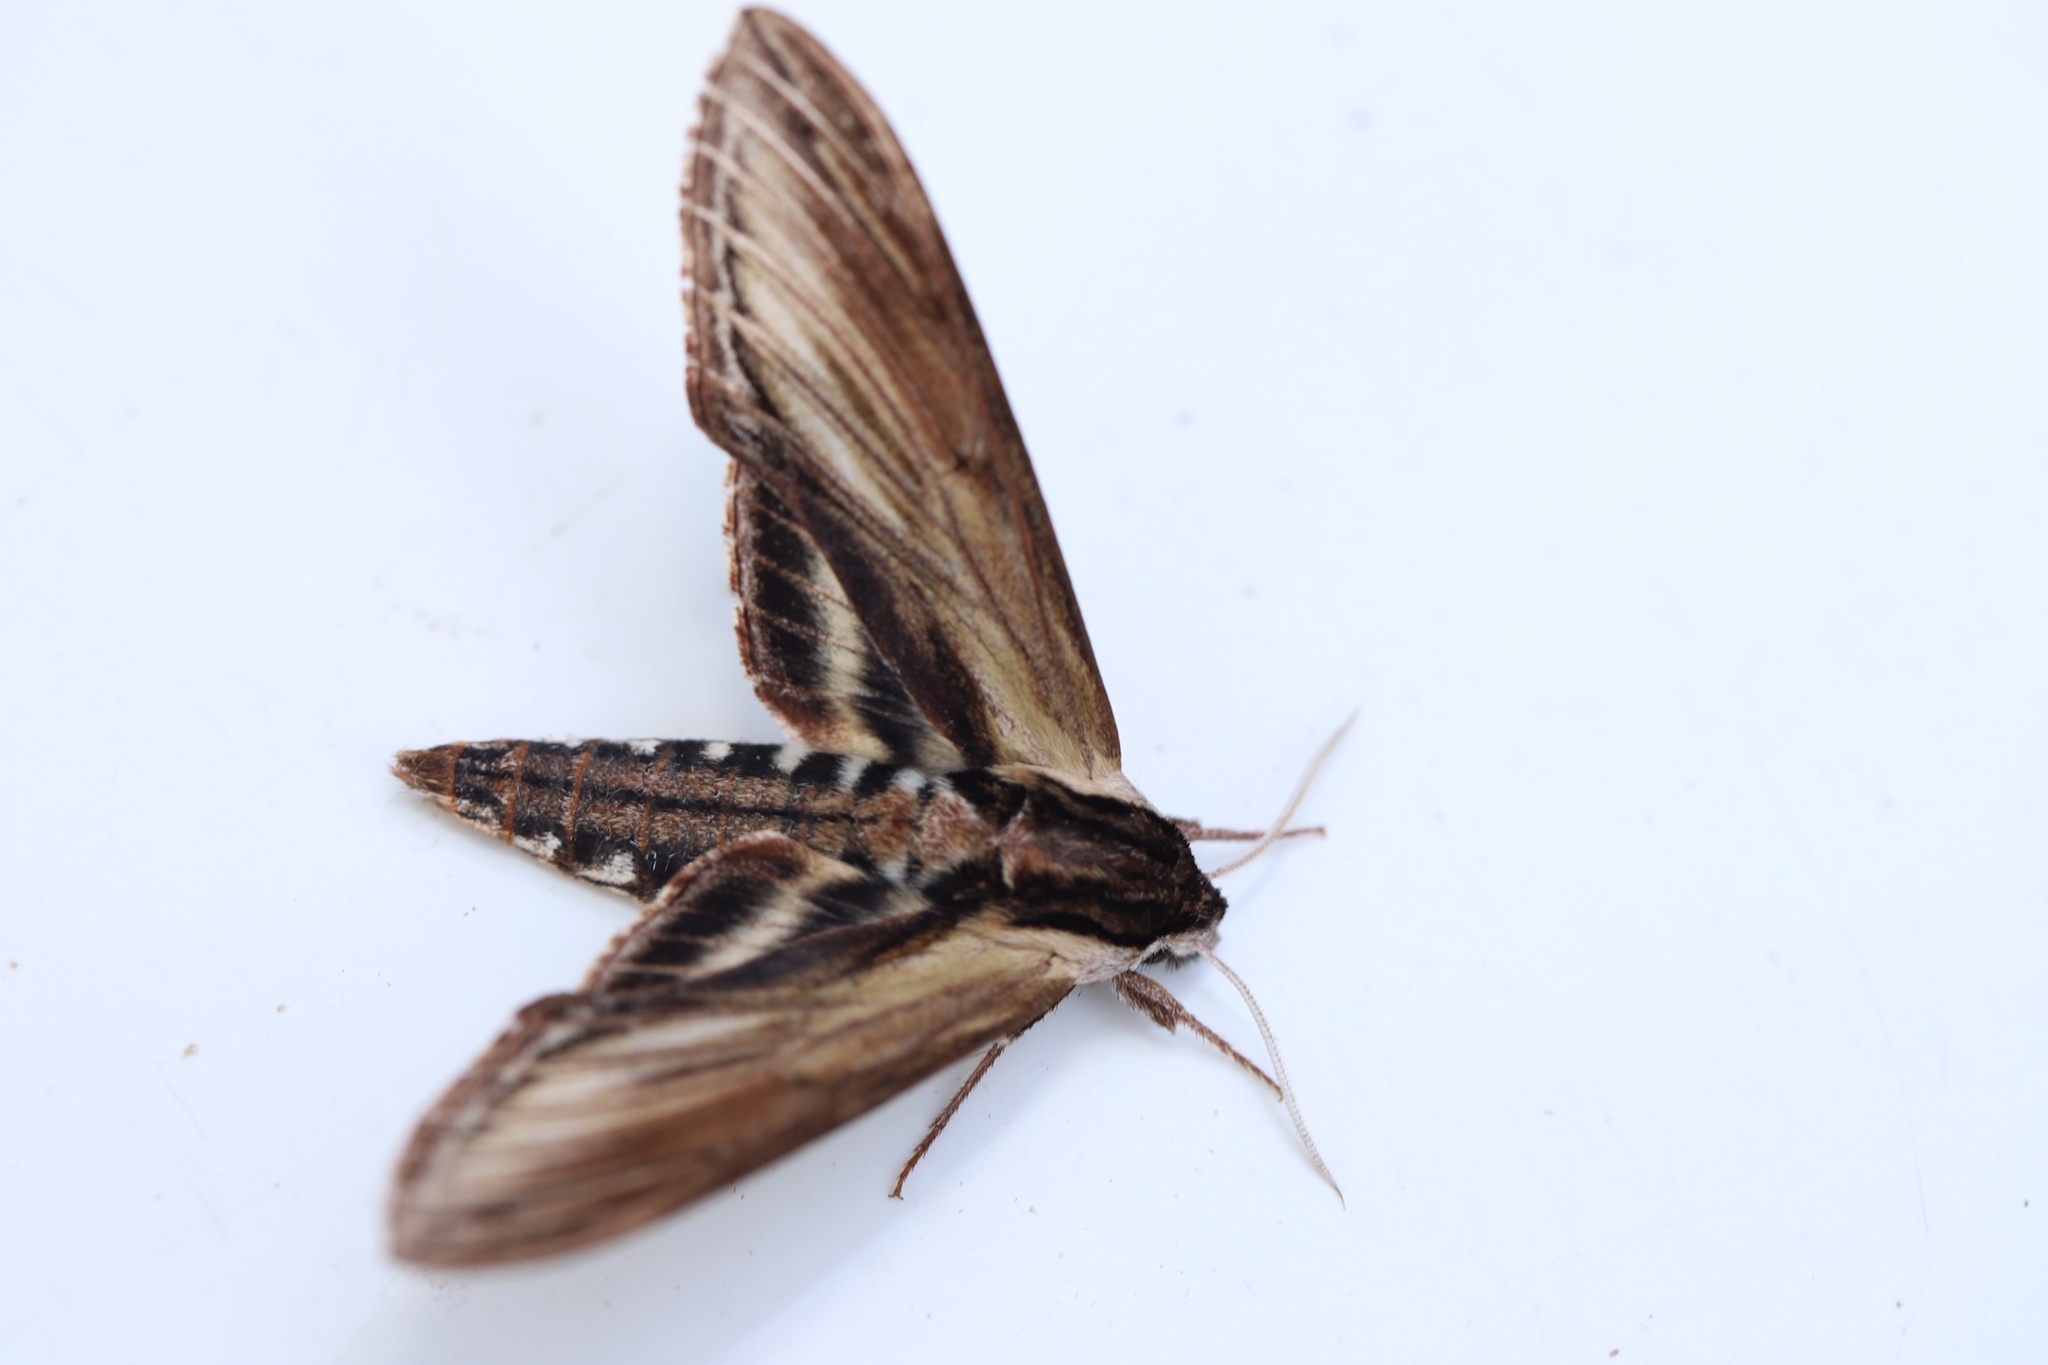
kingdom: Animalia
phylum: Arthropoda
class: Insecta
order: Lepidoptera
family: Sphingidae
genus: Sphinx
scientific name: Sphinx kalmiae
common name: Laurel sphinx
